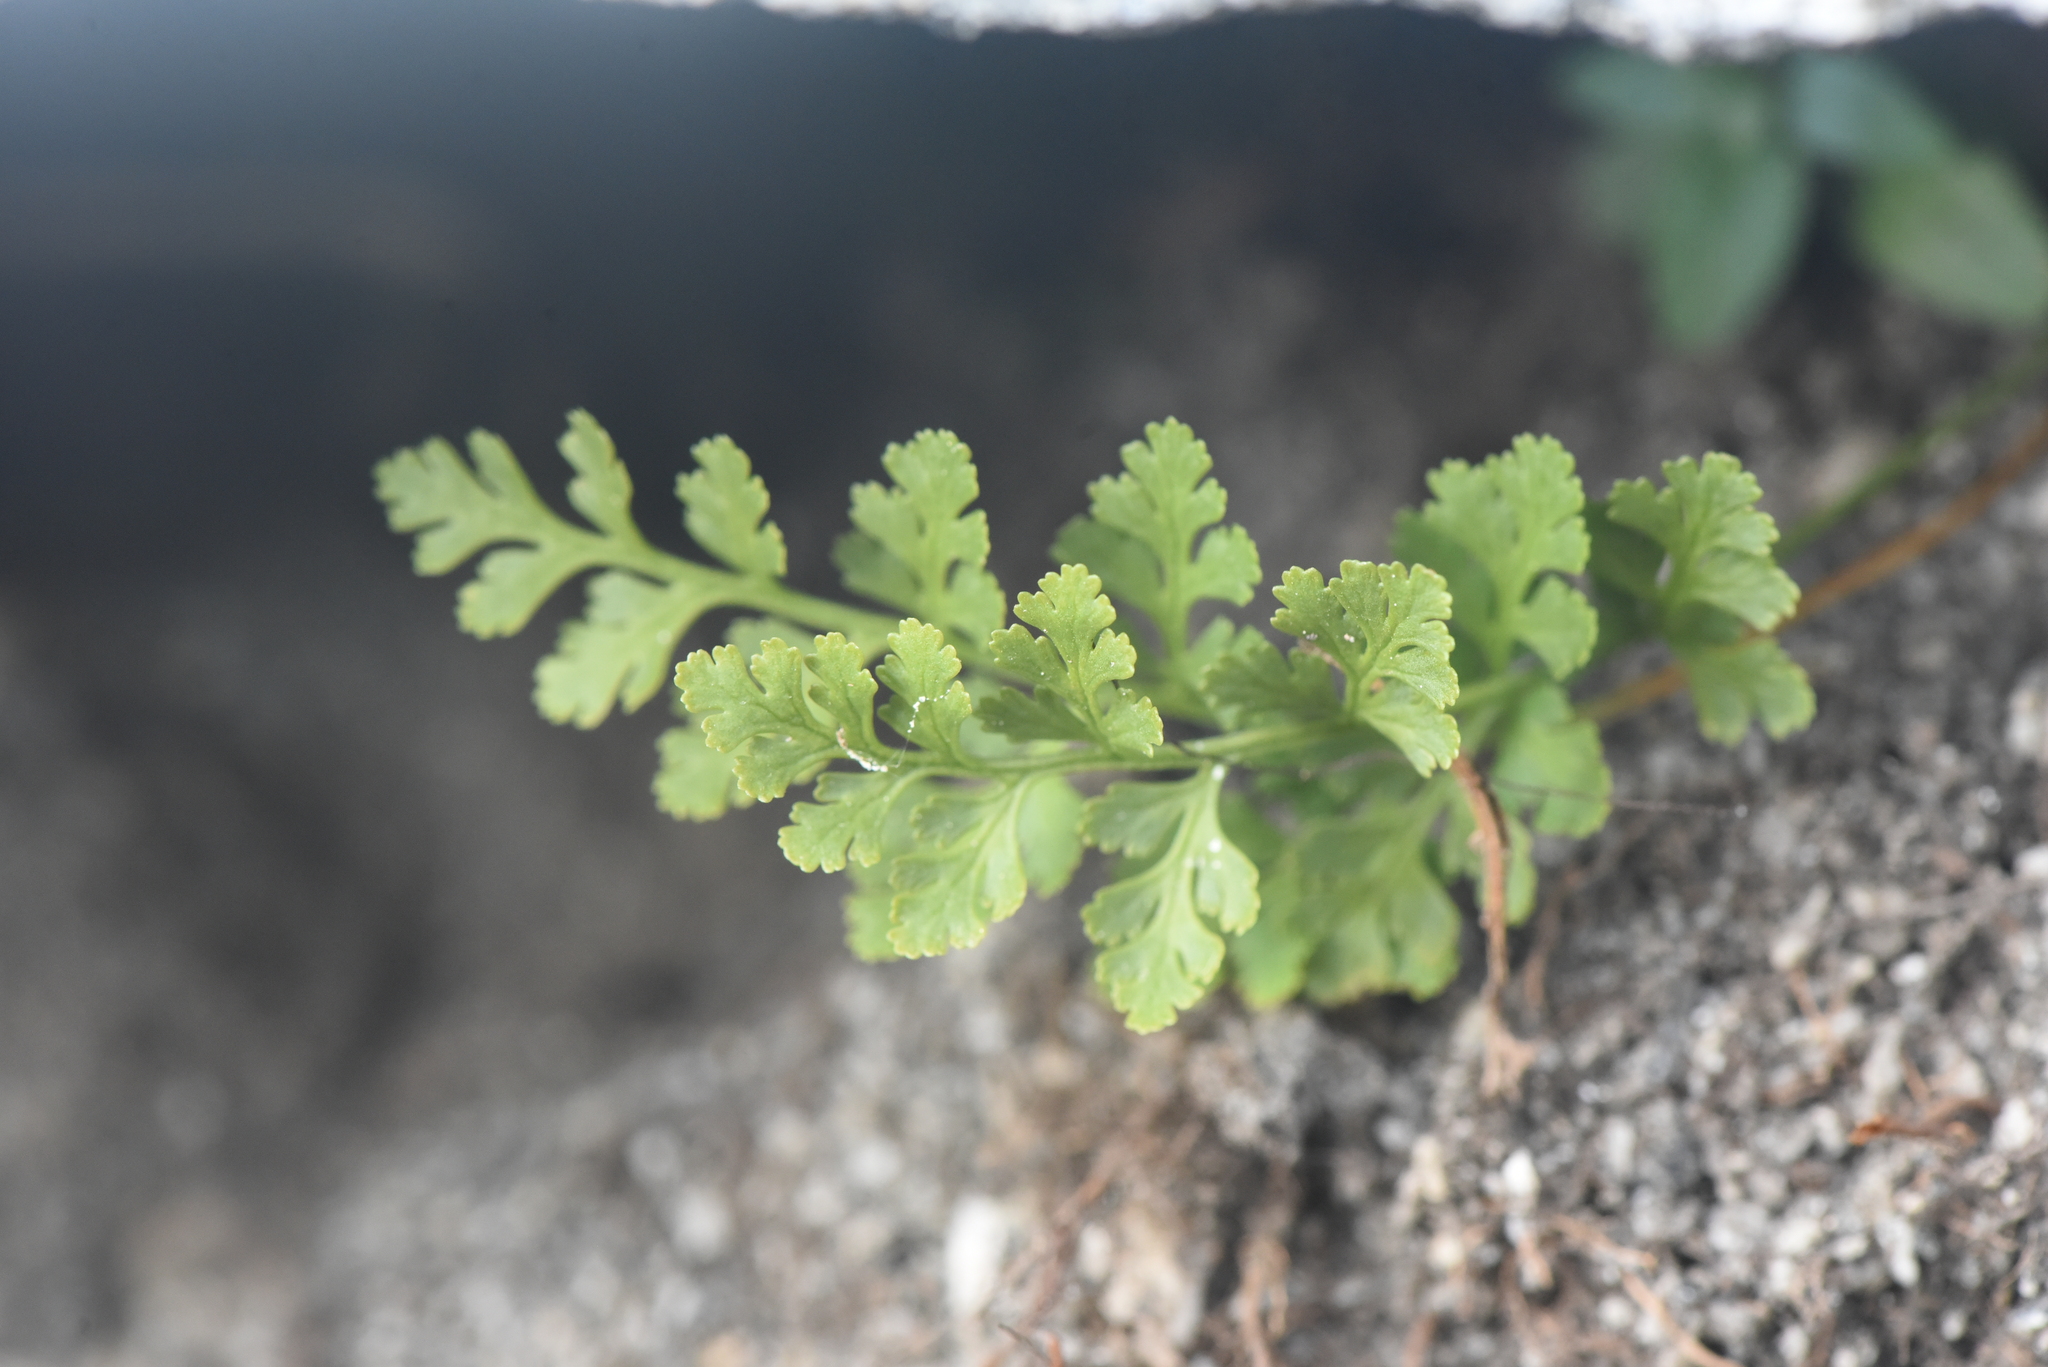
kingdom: Plantae
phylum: Tracheophyta
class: Polypodiopsida
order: Polypodiales
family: Pteridaceae
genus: Cryptogramma
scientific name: Cryptogramma acrostichoides
